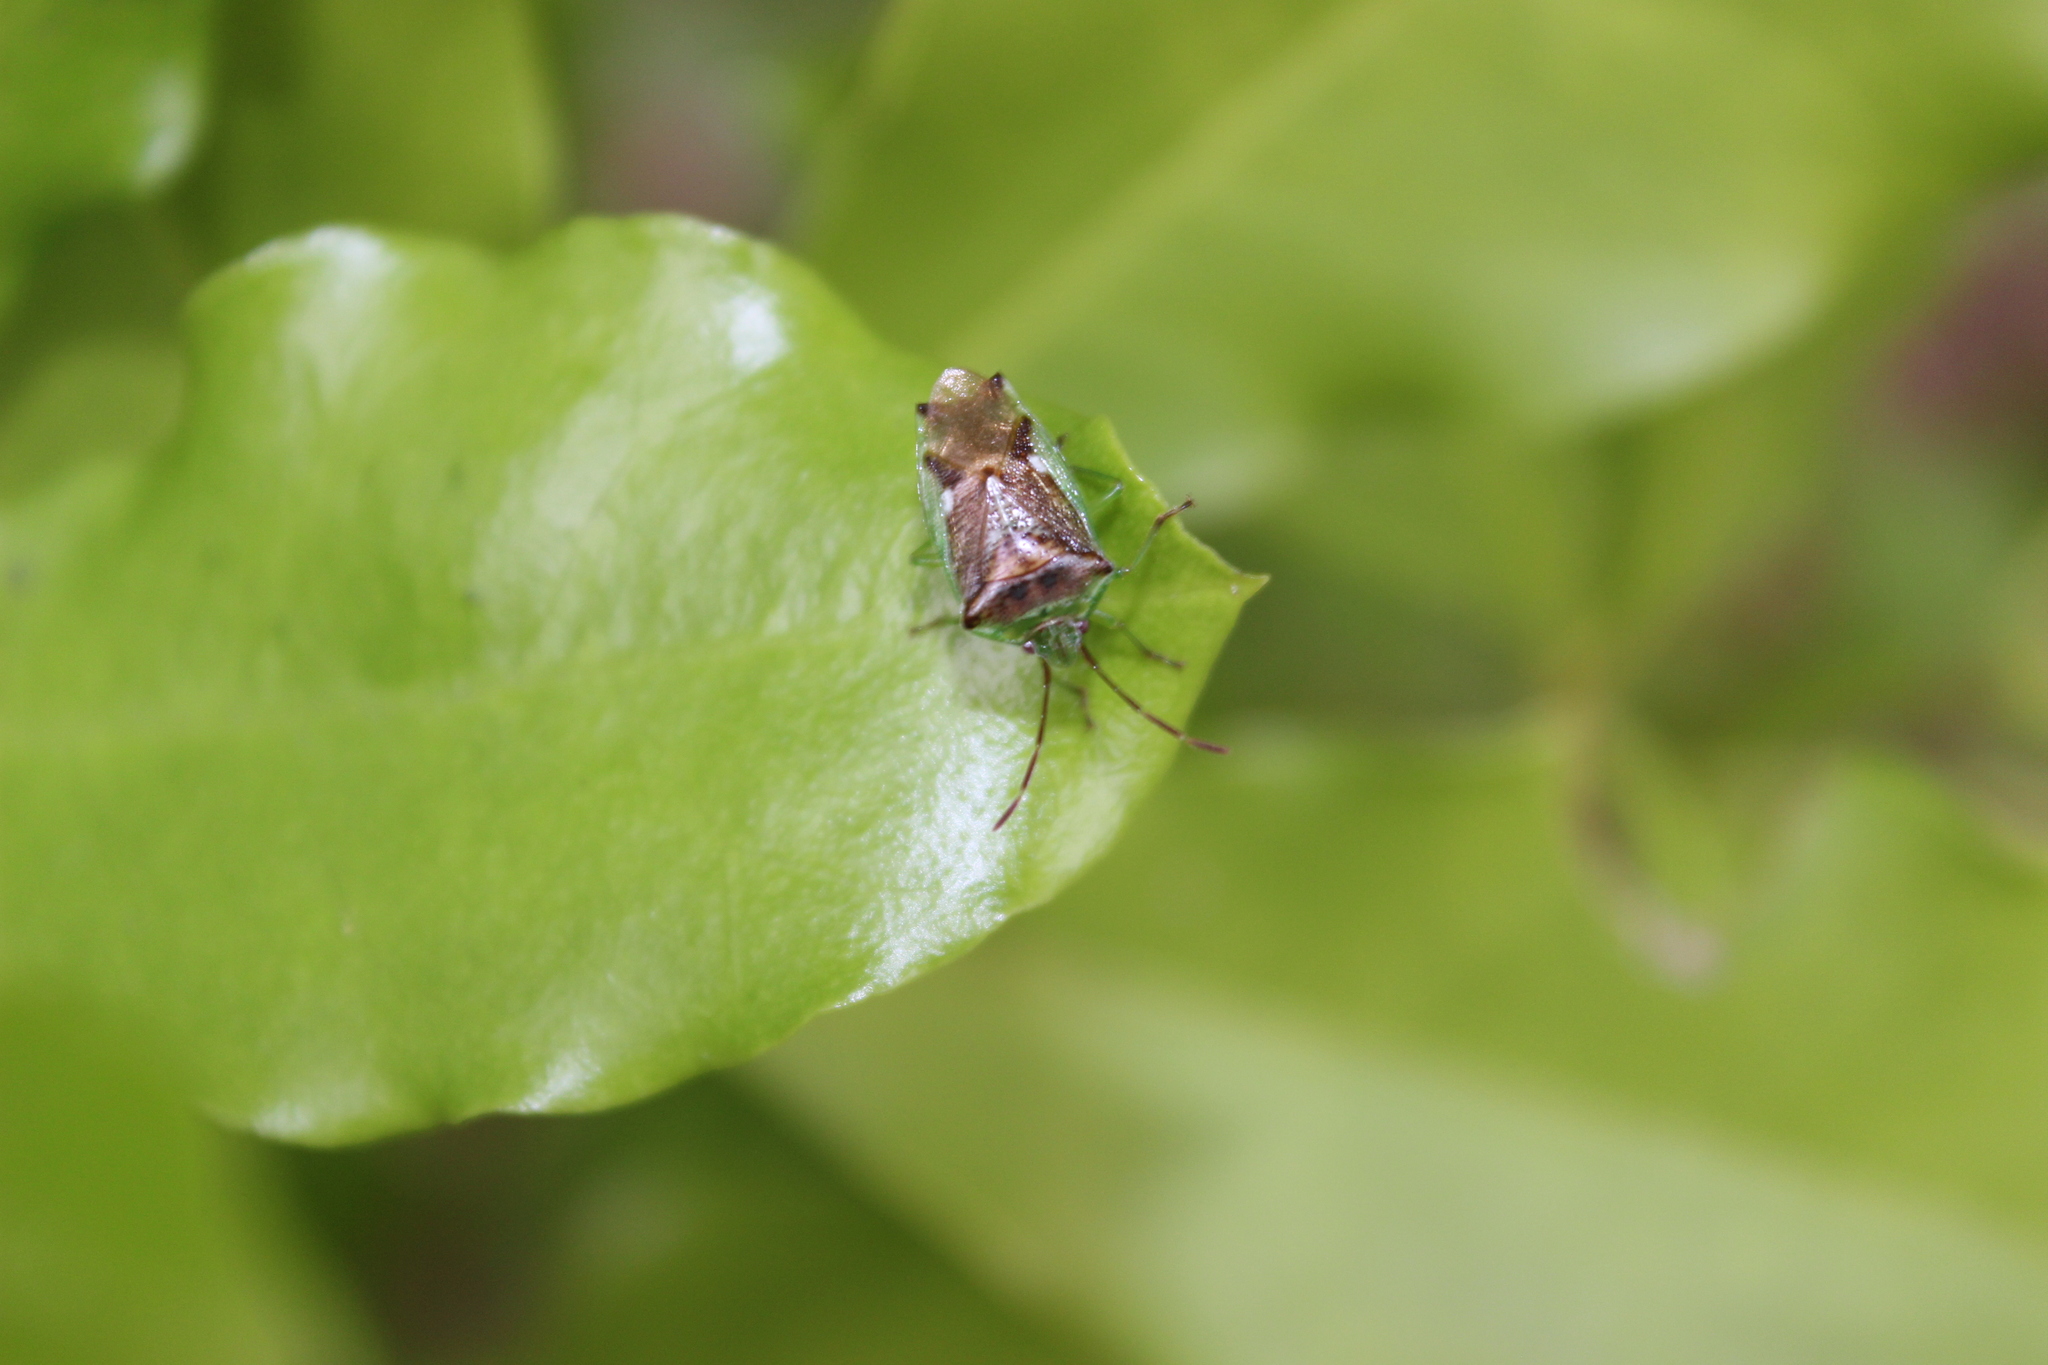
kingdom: Animalia
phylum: Arthropoda
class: Insecta
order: Hemiptera
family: Acanthosomatidae
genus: Oncacontias
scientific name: Oncacontias vittatus
